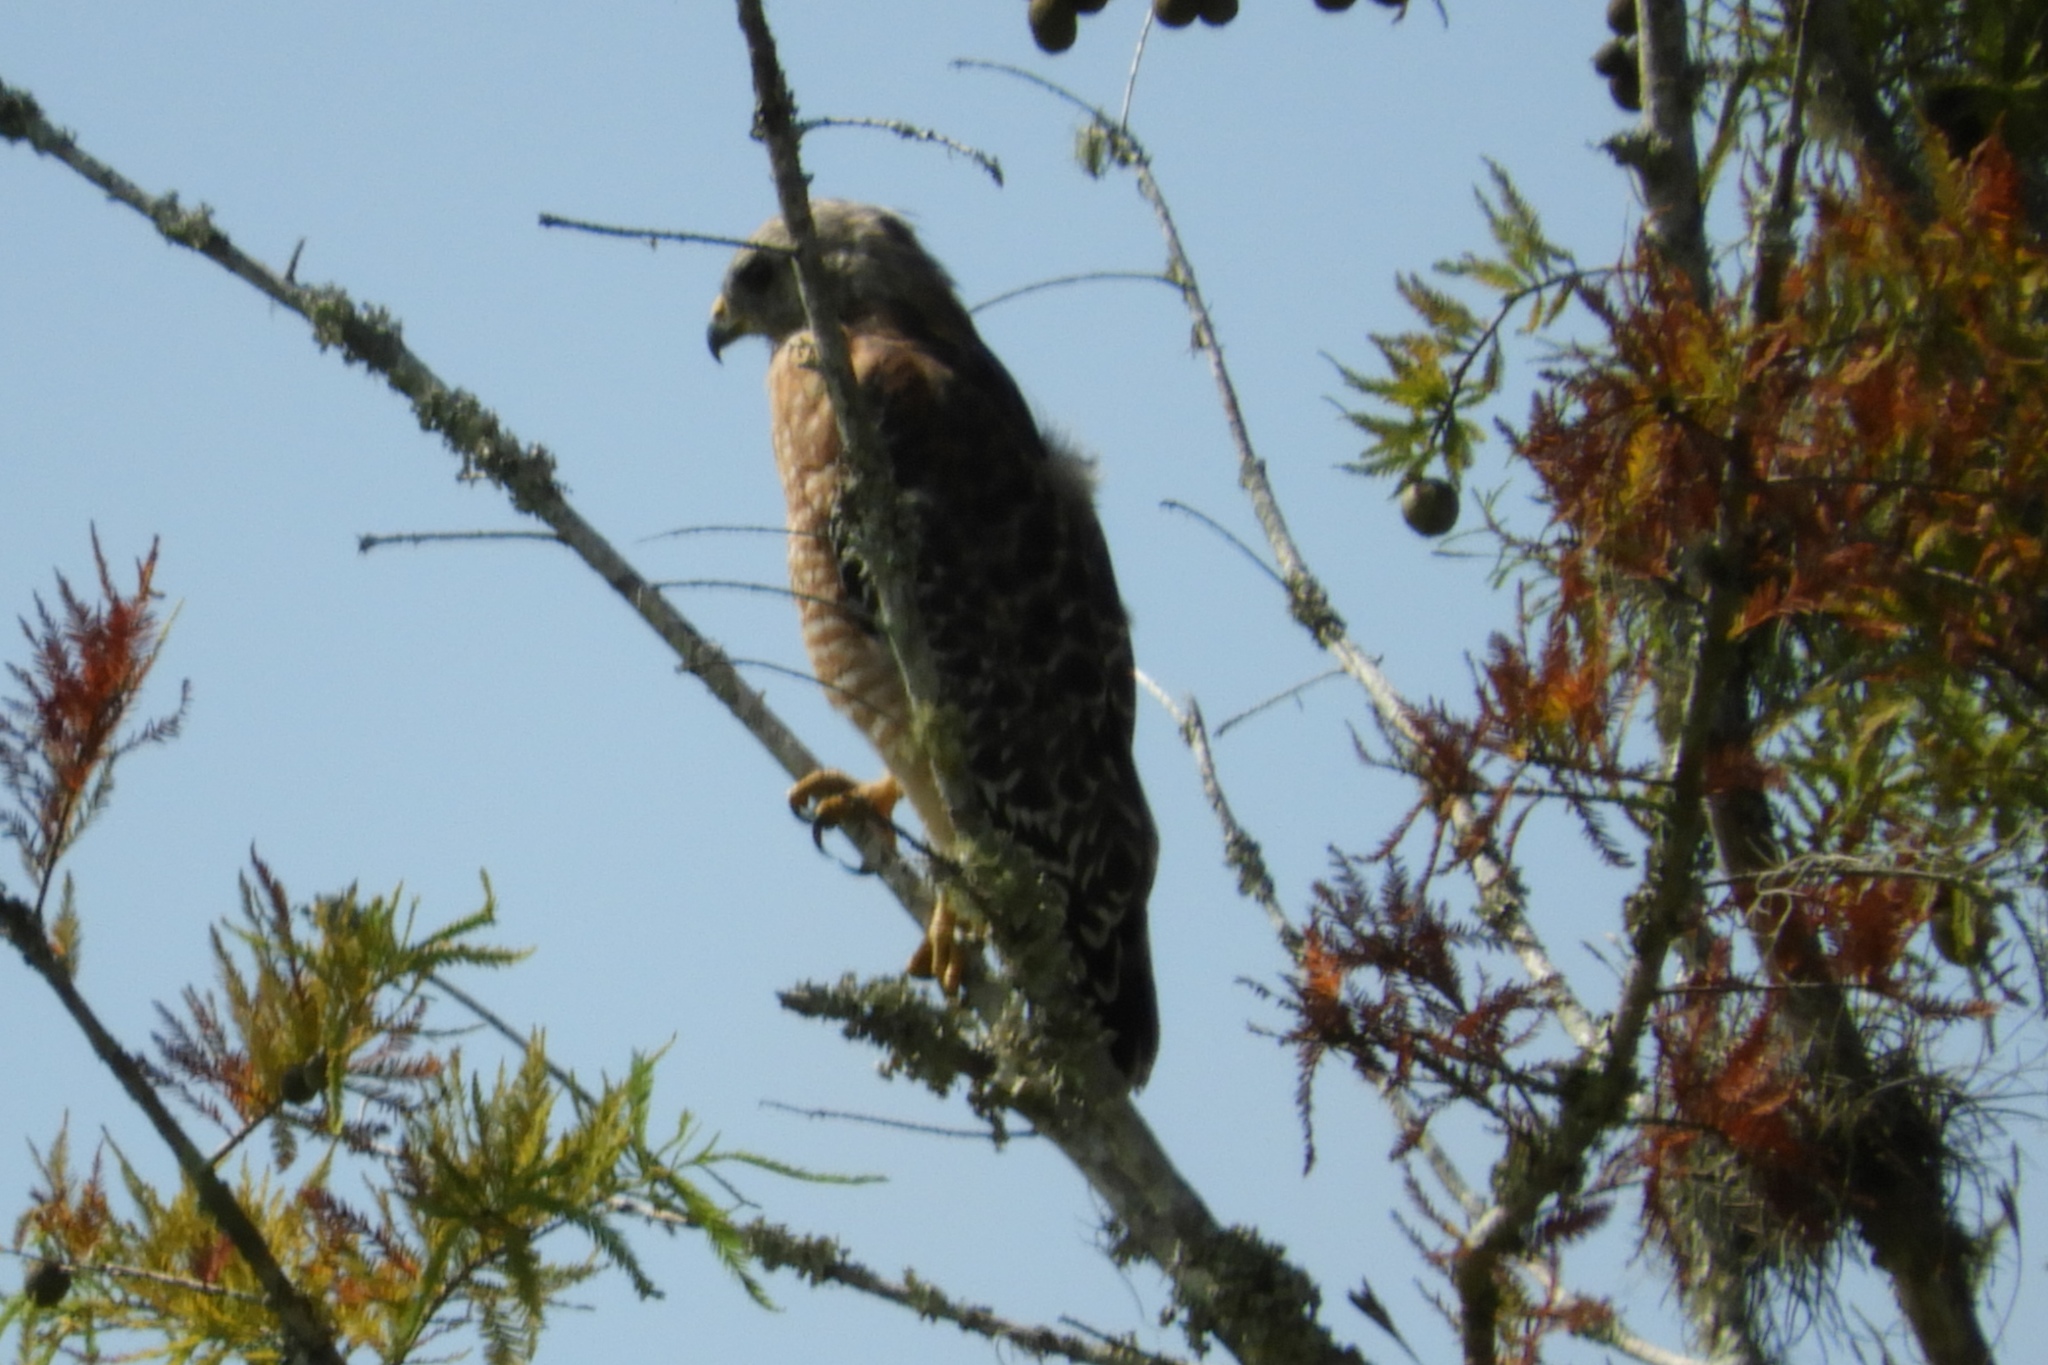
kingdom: Animalia
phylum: Chordata
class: Aves
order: Accipitriformes
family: Accipitridae
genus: Buteo
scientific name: Buteo lineatus
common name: Red-shouldered hawk
